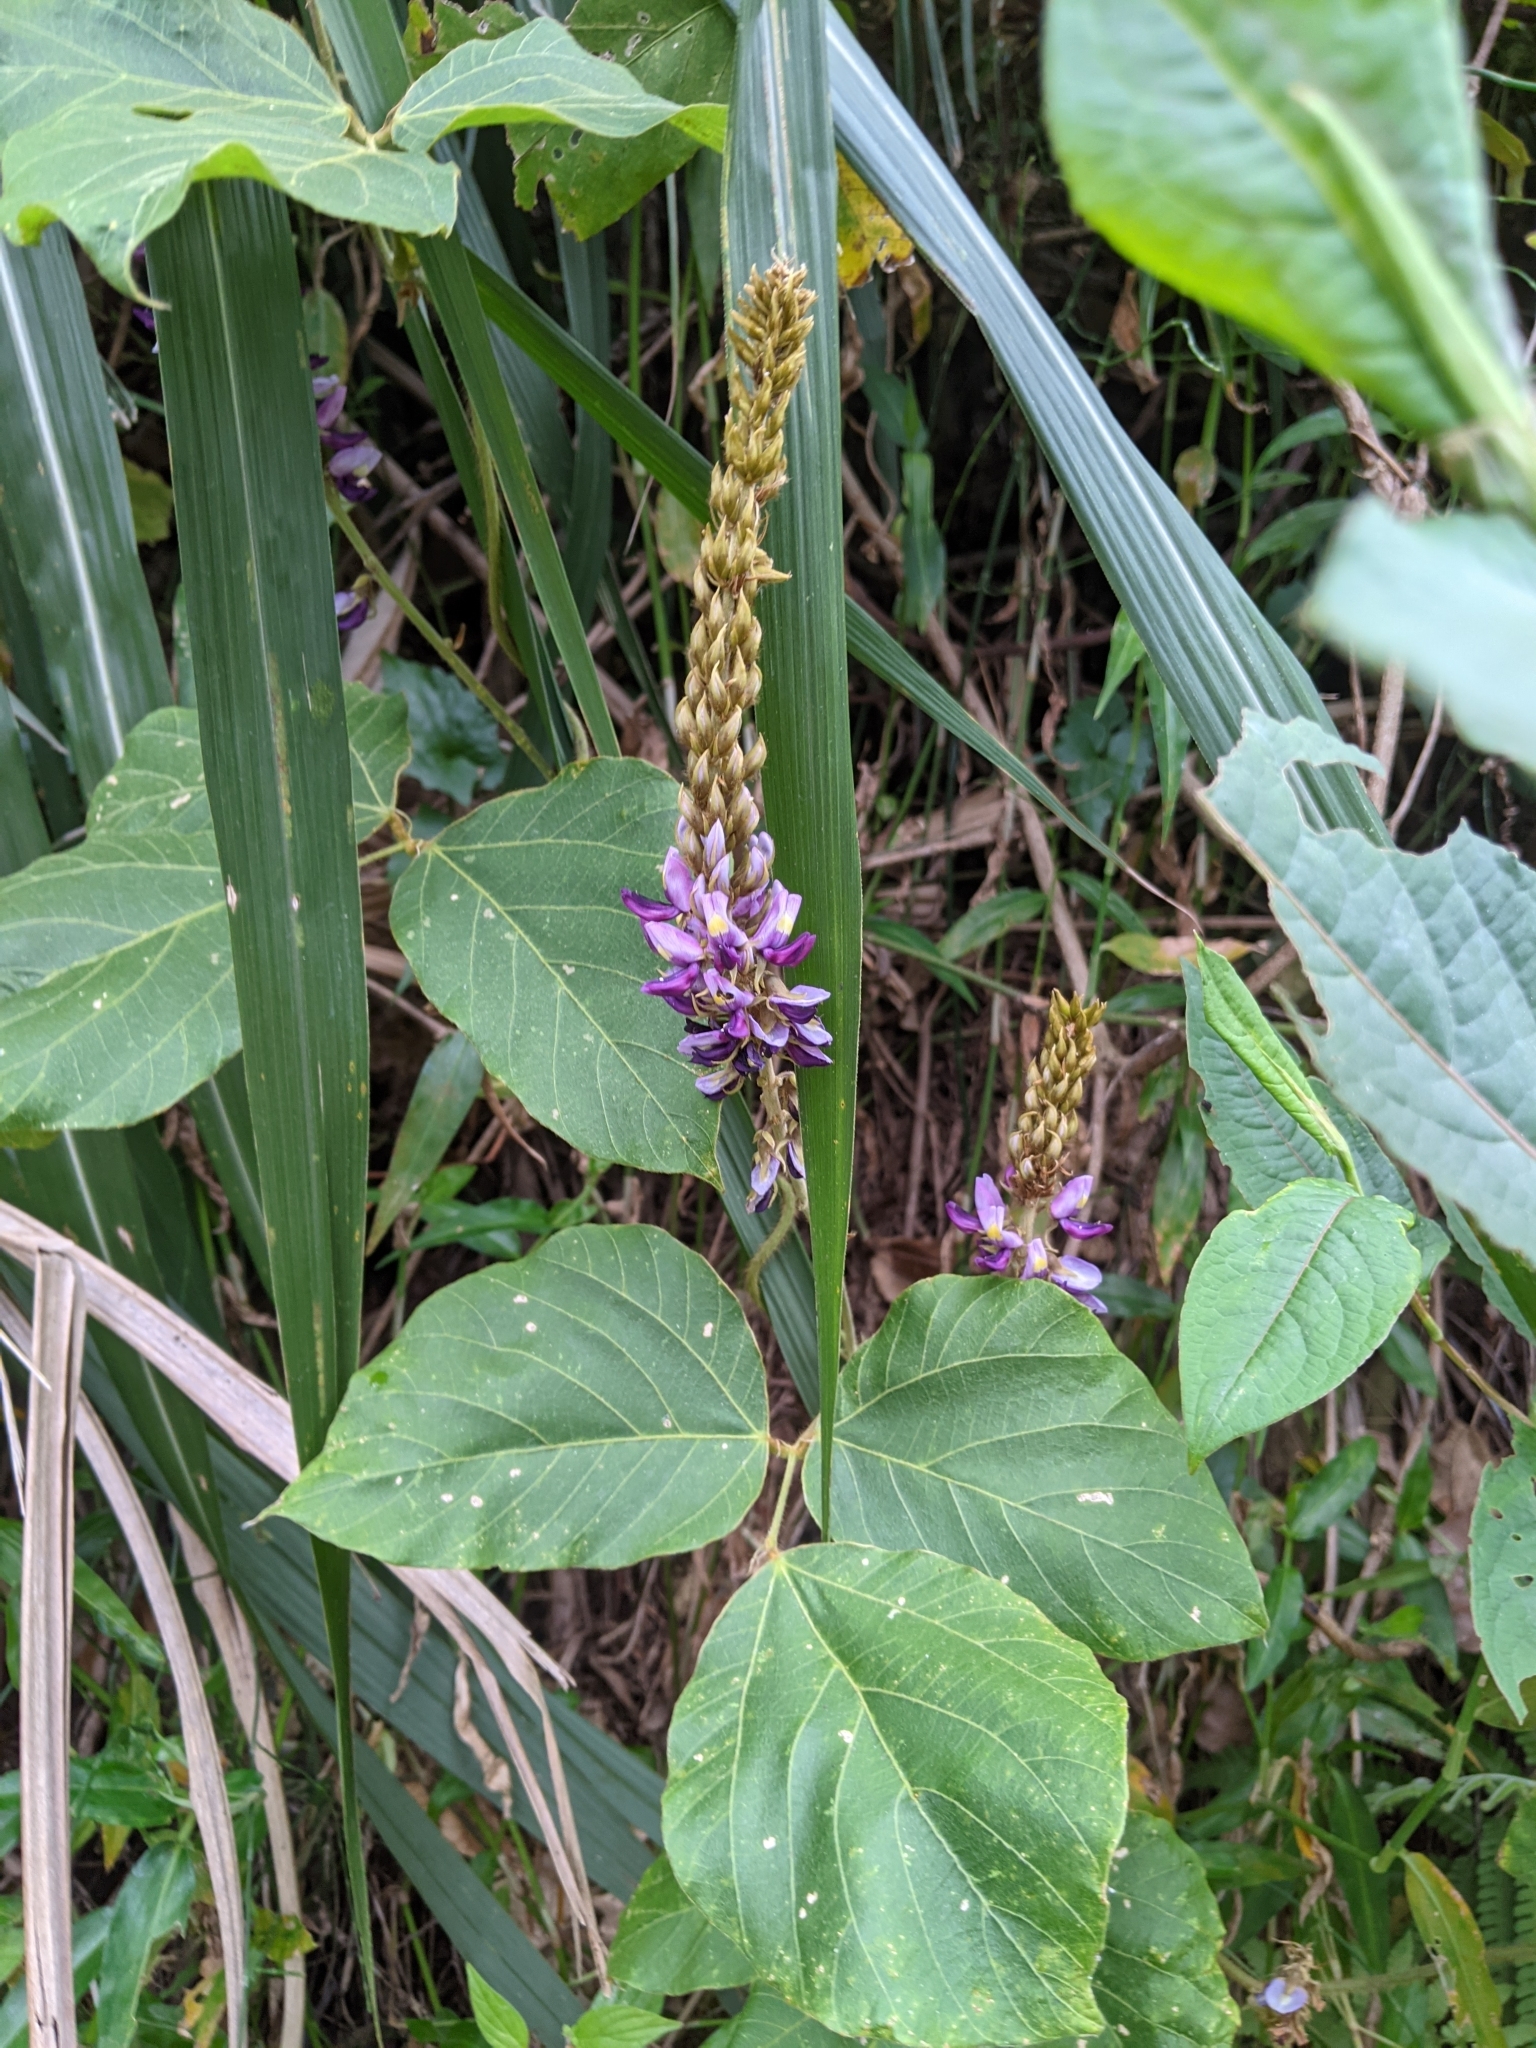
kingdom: Plantae
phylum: Tracheophyta
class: Magnoliopsida
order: Fabales
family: Fabaceae
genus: Pueraria
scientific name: Pueraria montana
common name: Kudzu
